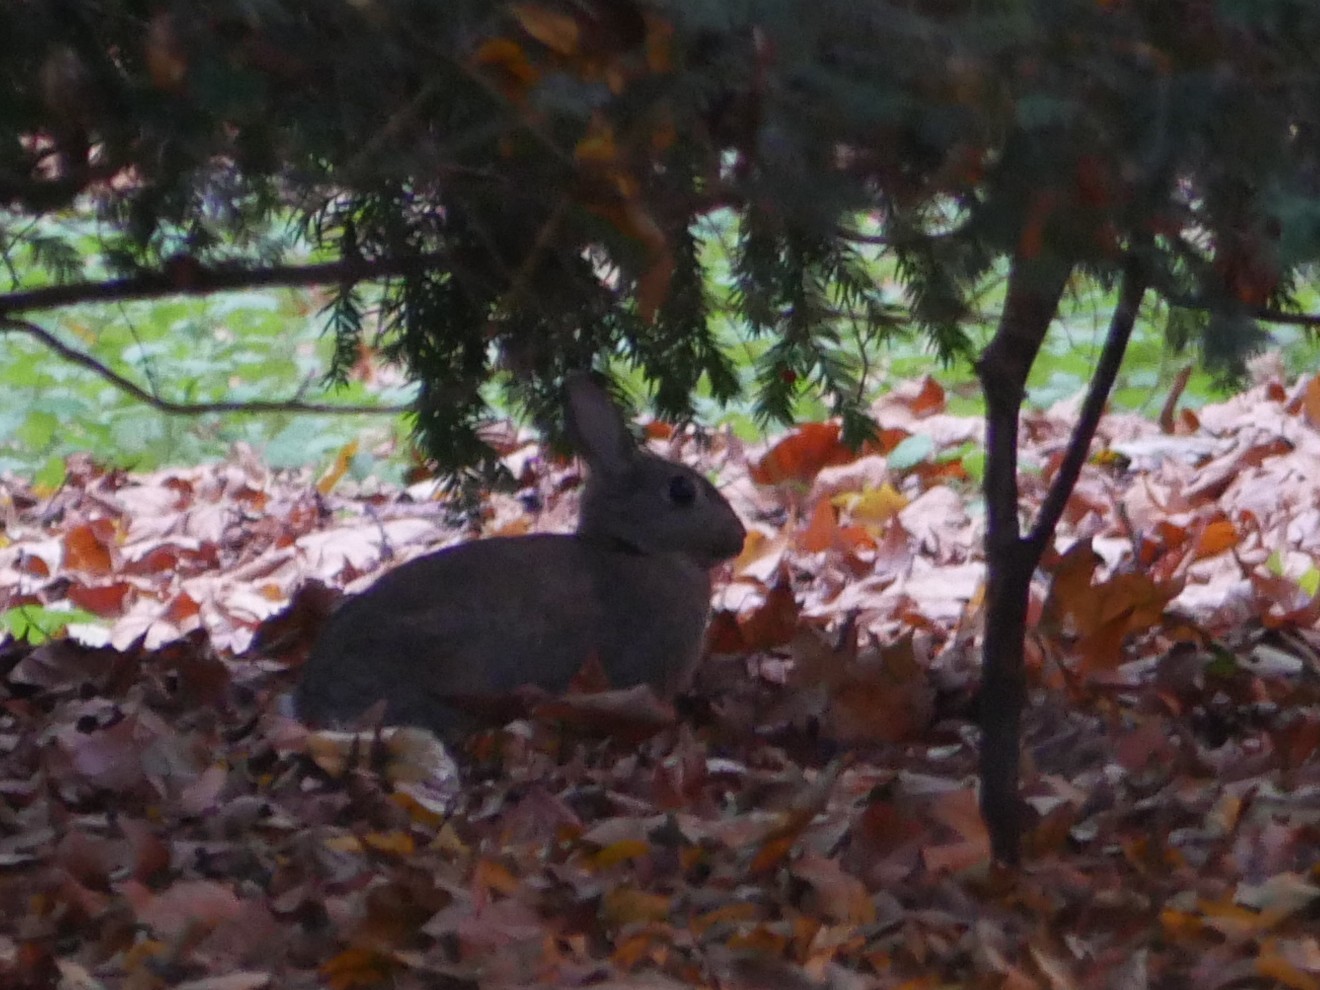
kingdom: Animalia
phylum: Chordata
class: Mammalia
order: Lagomorpha
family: Leporidae
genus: Oryctolagus
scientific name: Oryctolagus cuniculus
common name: European rabbit
